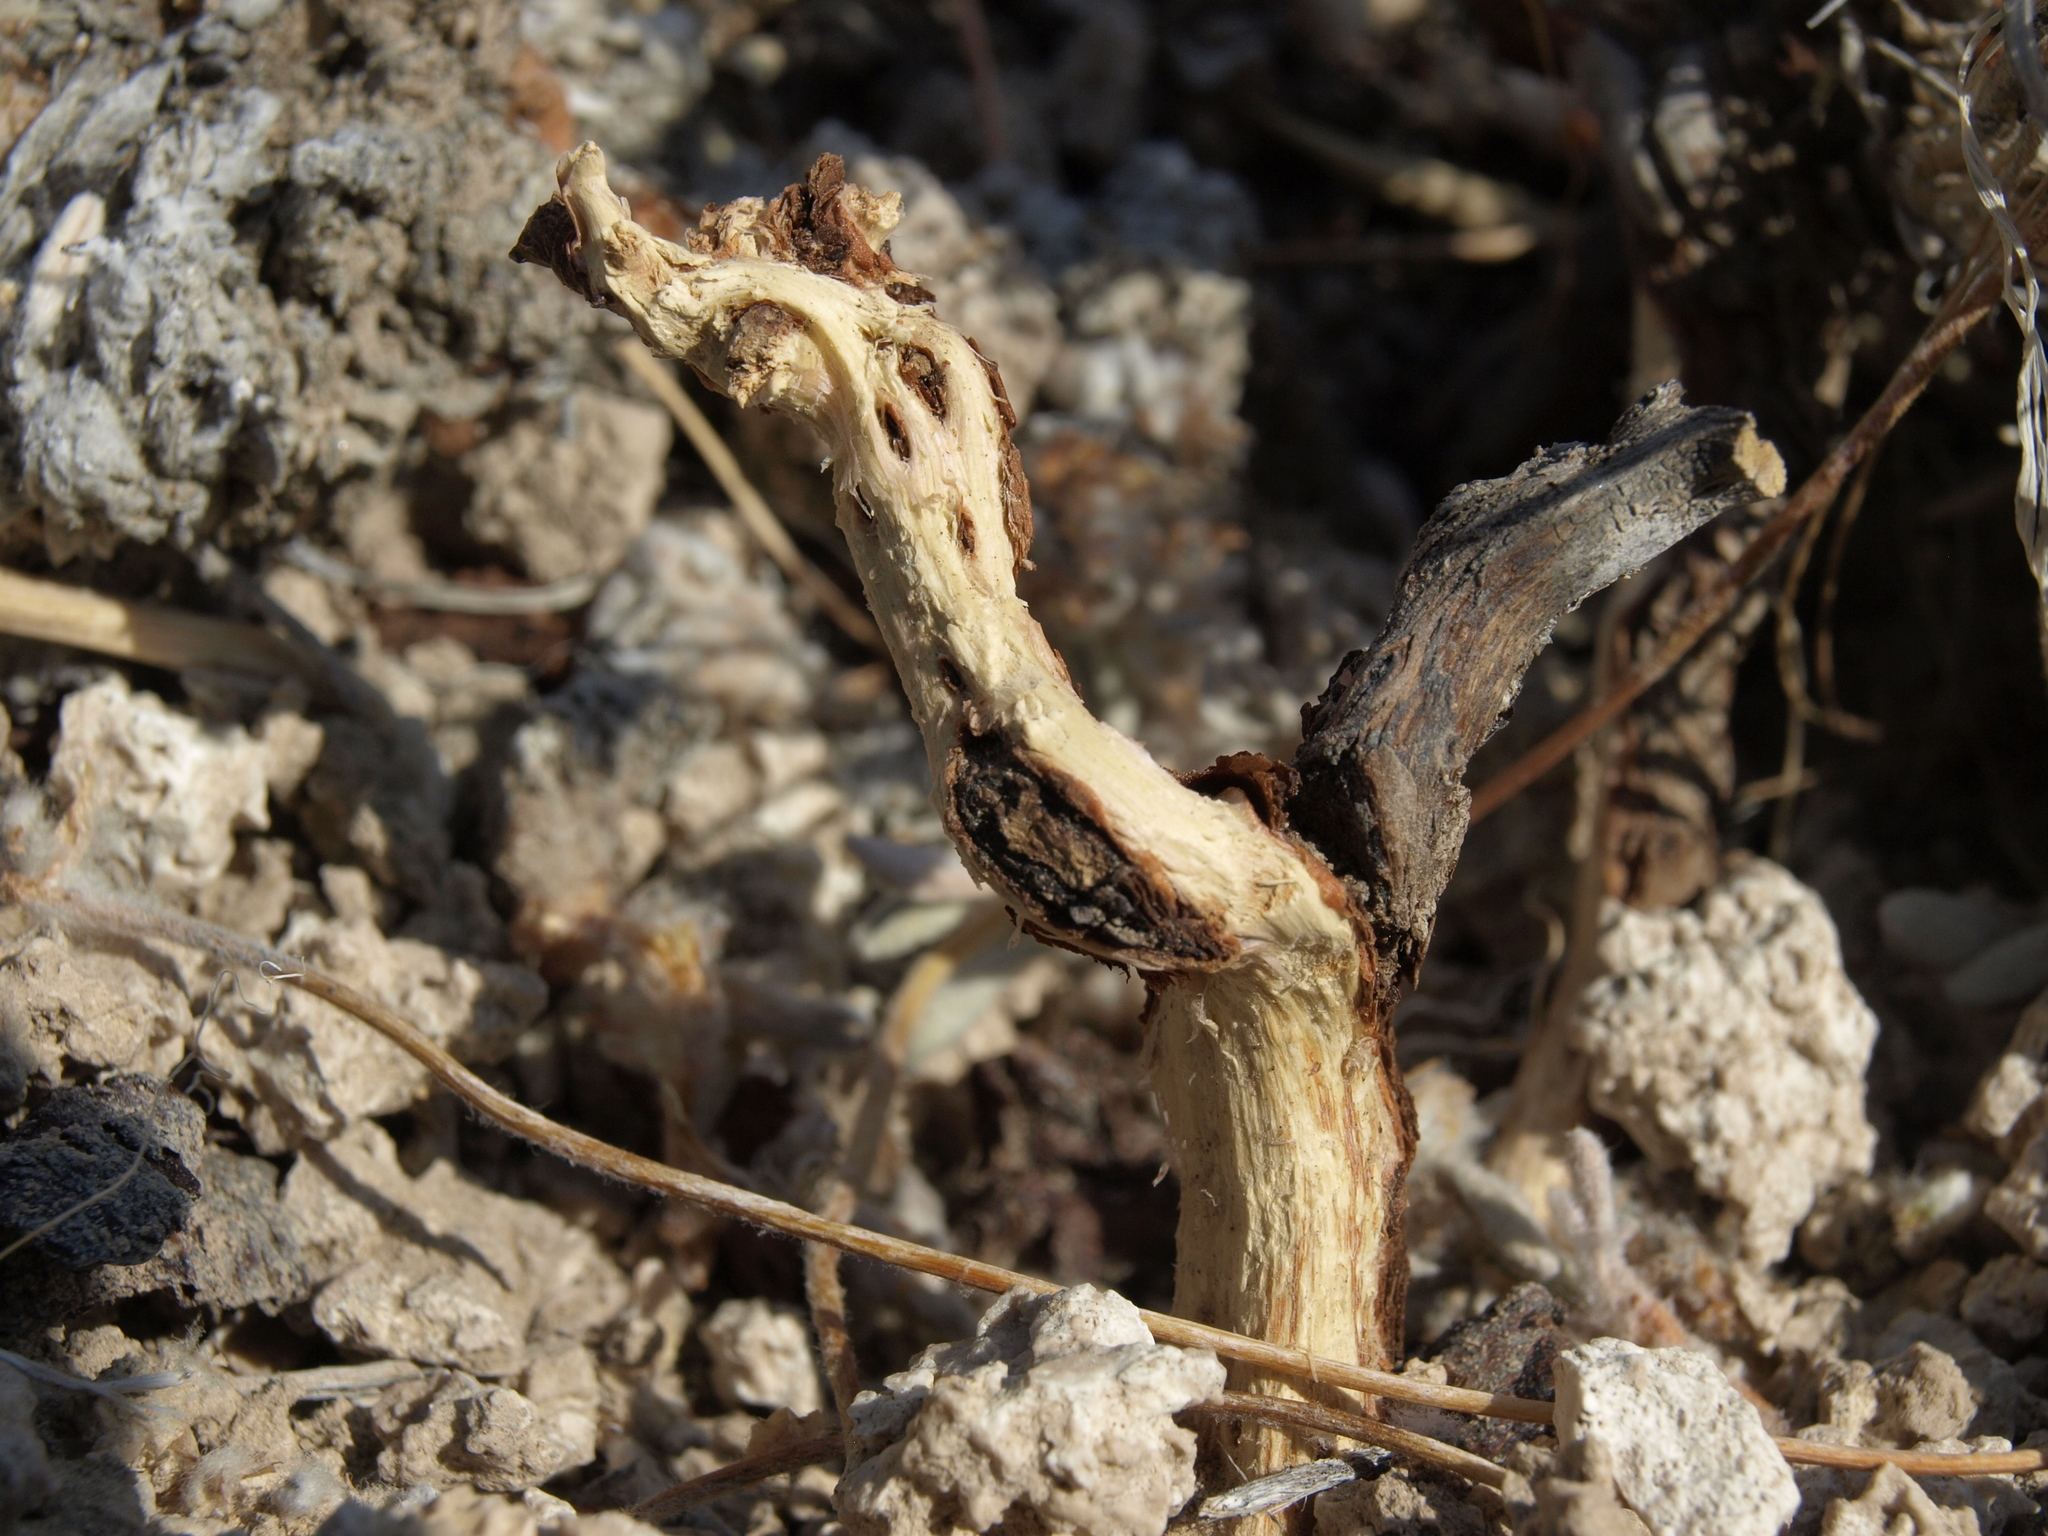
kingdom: Plantae
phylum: Tracheophyta
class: Magnoliopsida
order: Caryophyllales
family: Polygonaceae
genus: Eriogonum
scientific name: Eriogonum tiehmii
